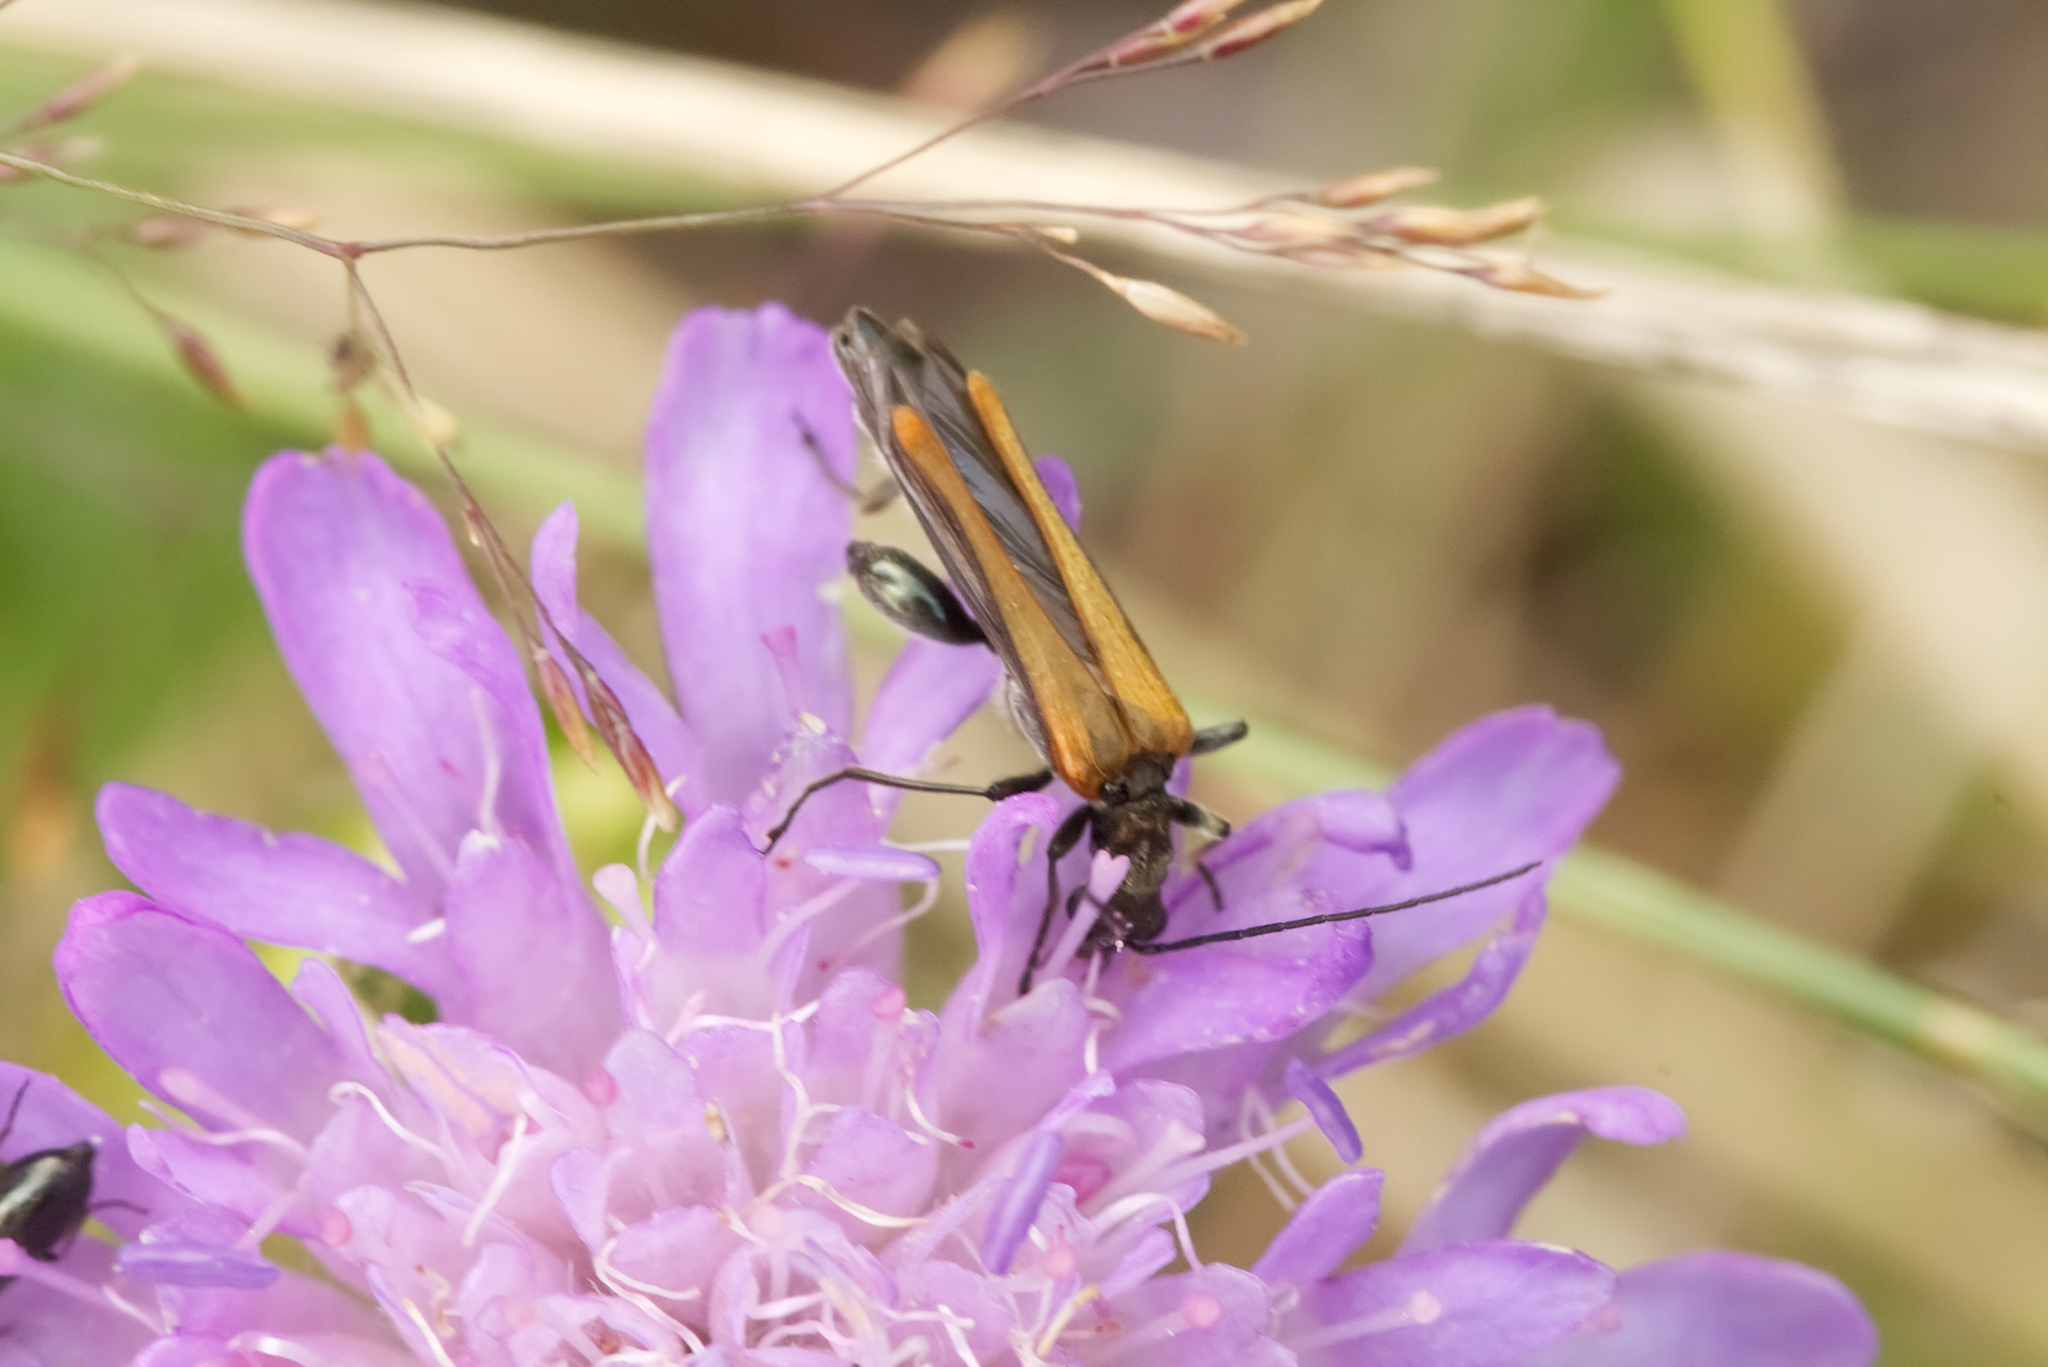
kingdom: Animalia
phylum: Arthropoda
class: Insecta
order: Coleoptera
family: Oedemeridae
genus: Oedemera
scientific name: Oedemera femorata
